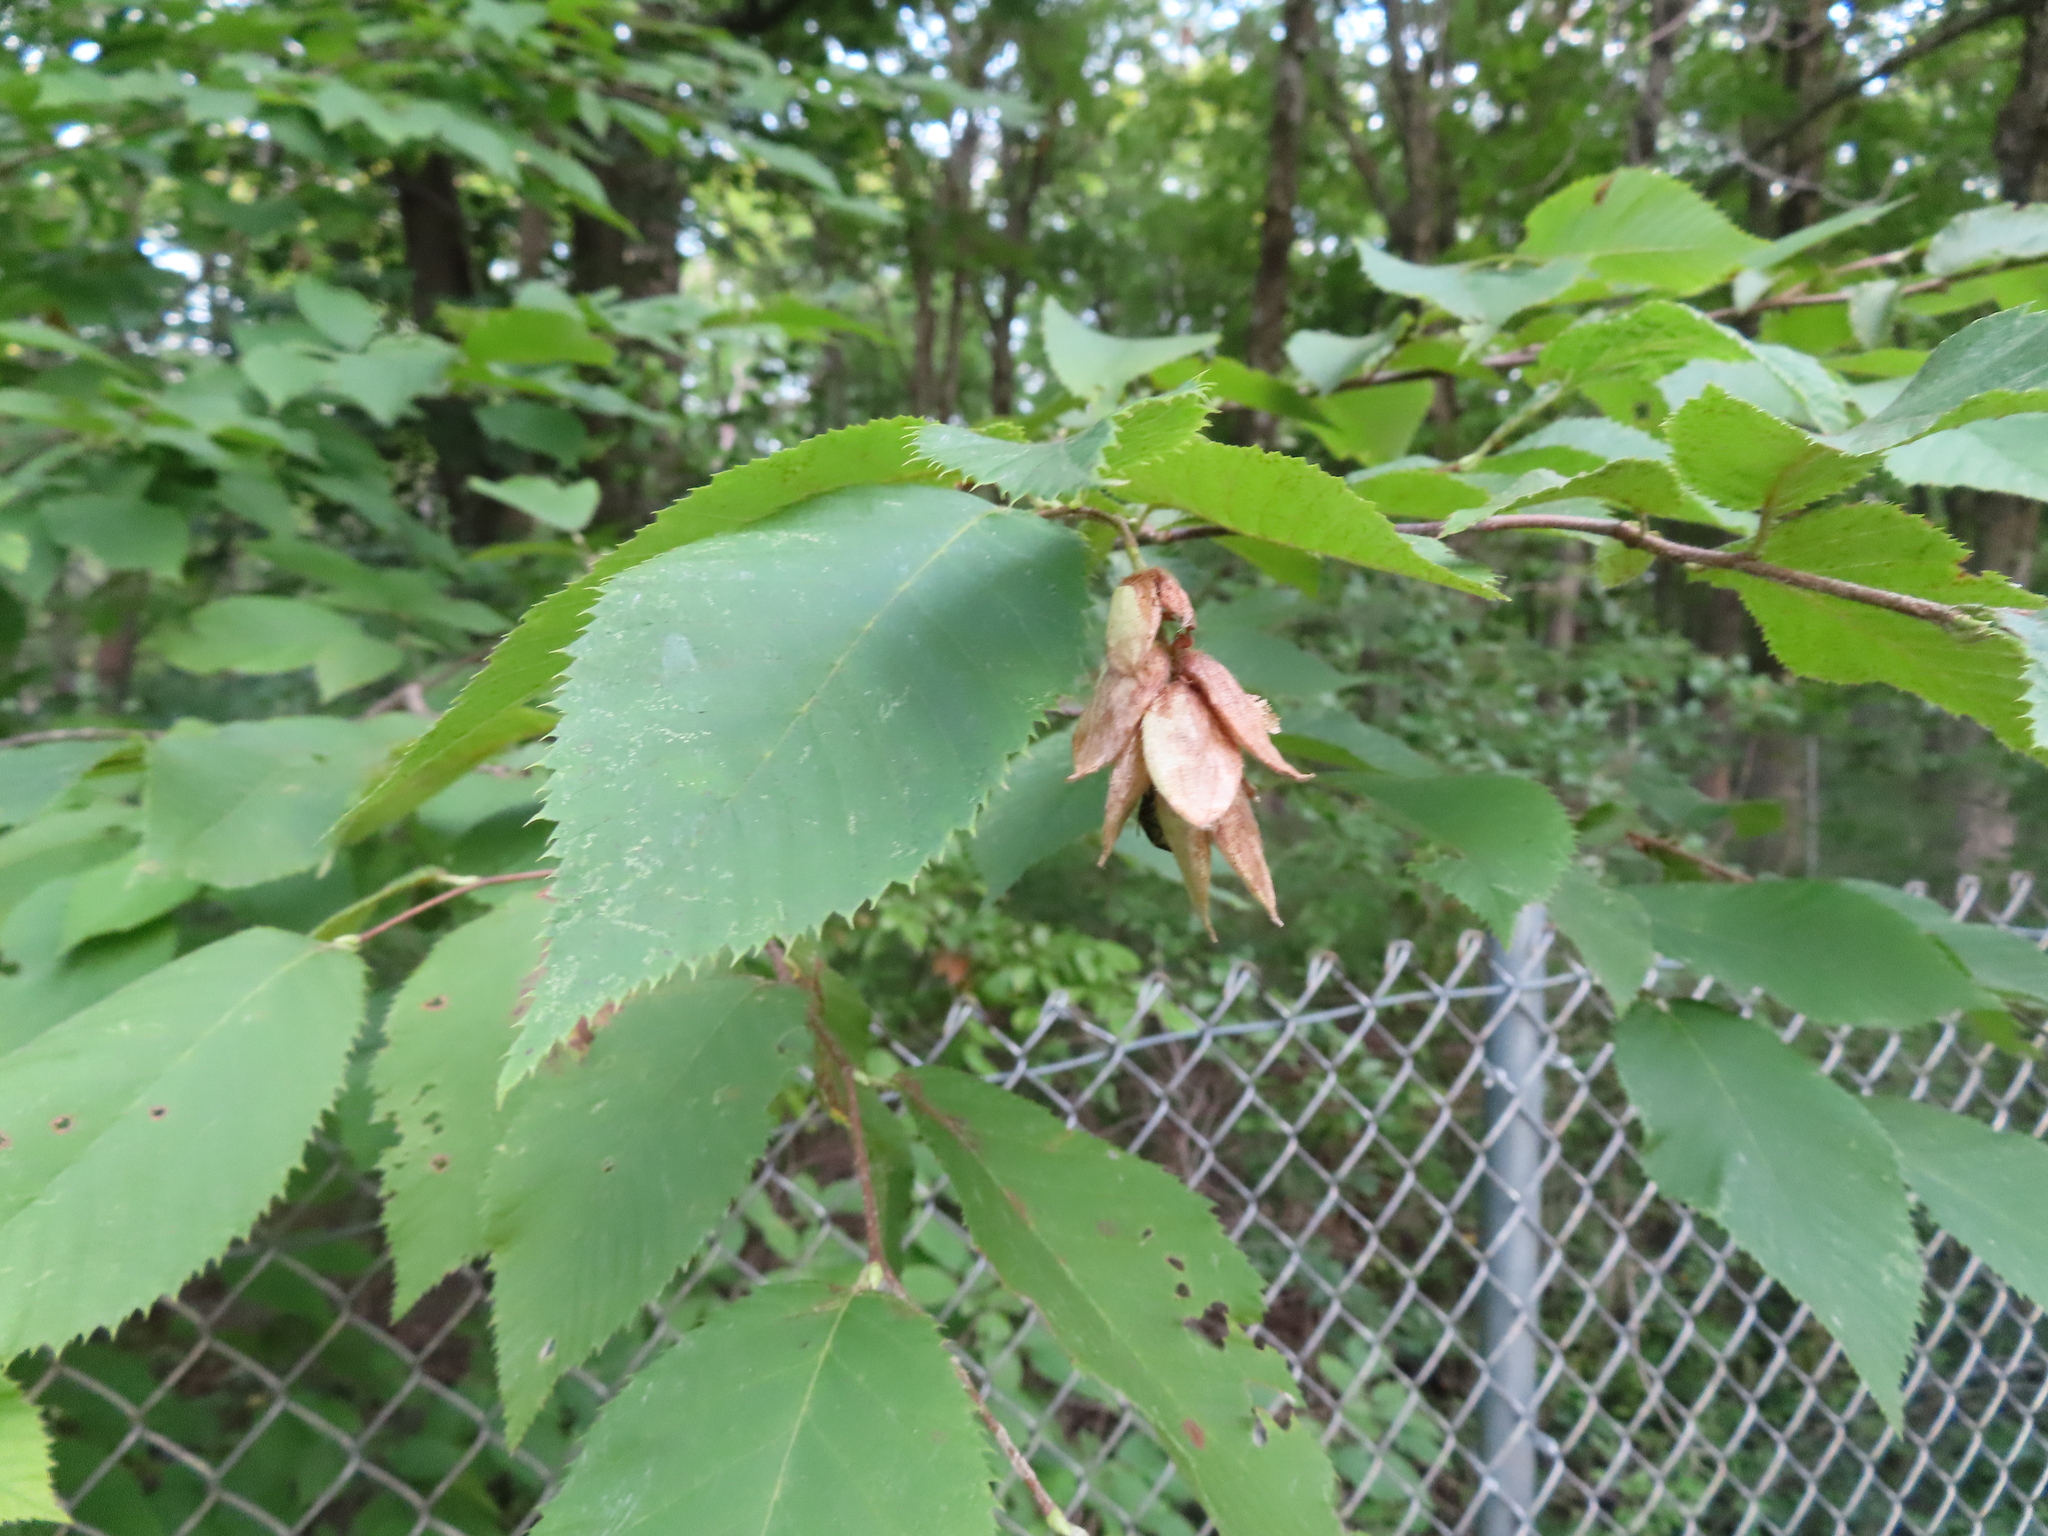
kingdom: Plantae
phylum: Tracheophyta
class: Magnoliopsida
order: Fagales
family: Betulaceae
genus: Ostrya
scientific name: Ostrya virginiana
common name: Ironwood
